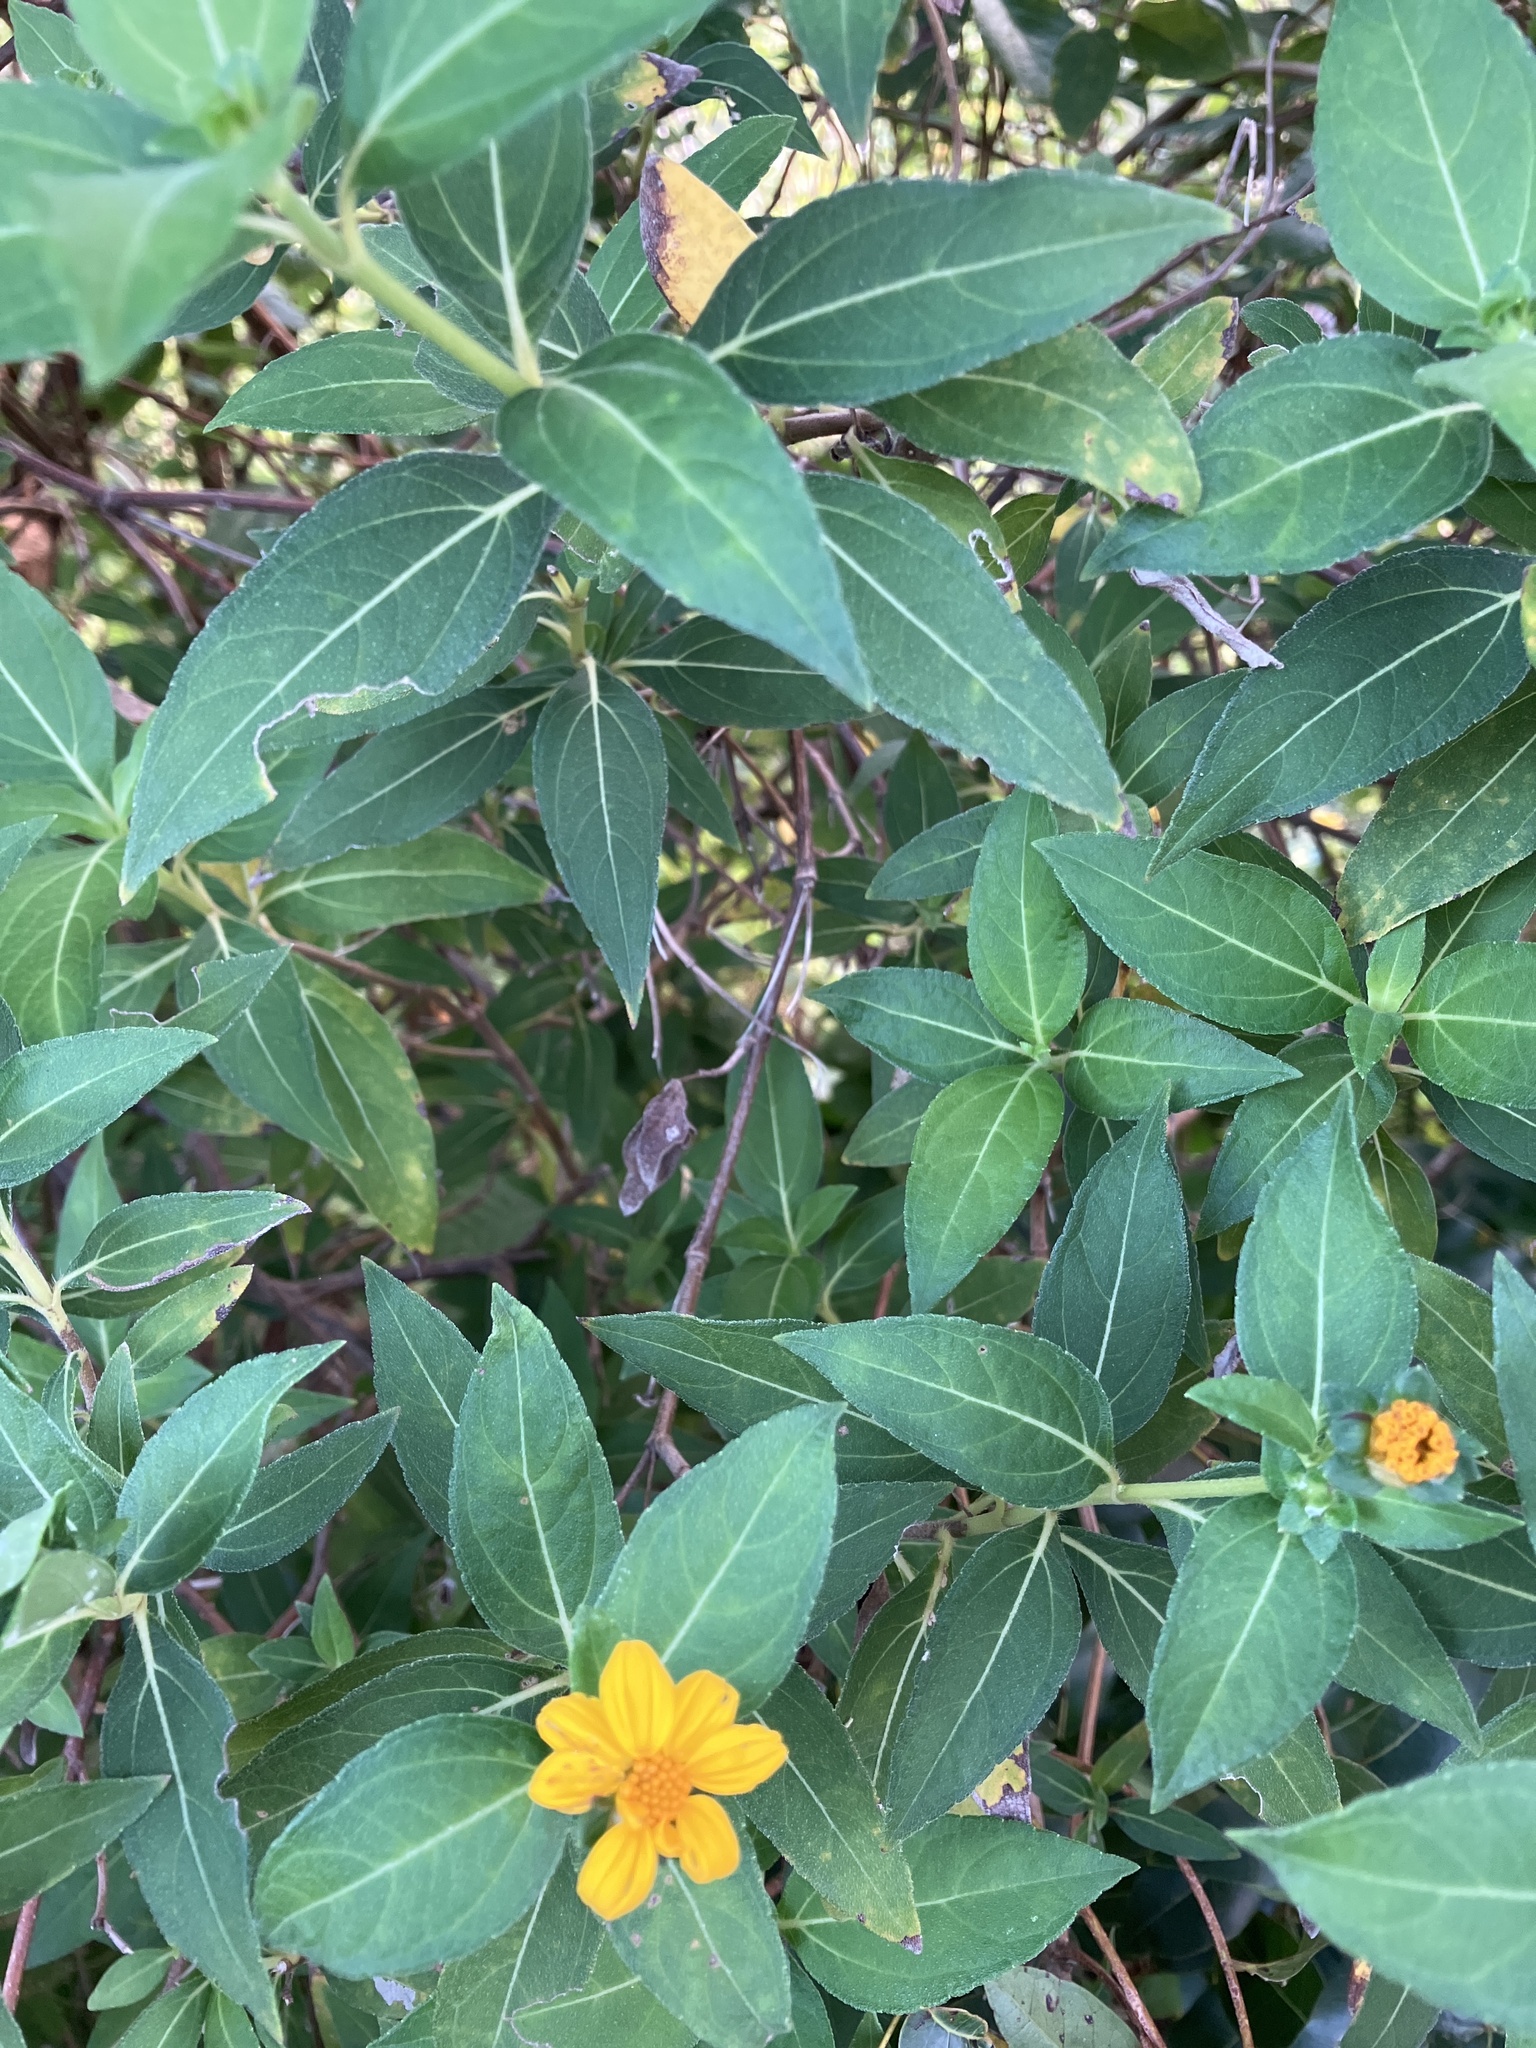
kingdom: Plantae
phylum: Tracheophyta
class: Magnoliopsida
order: Asterales
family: Asteraceae
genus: Wedelia
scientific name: Wedelia calycina
